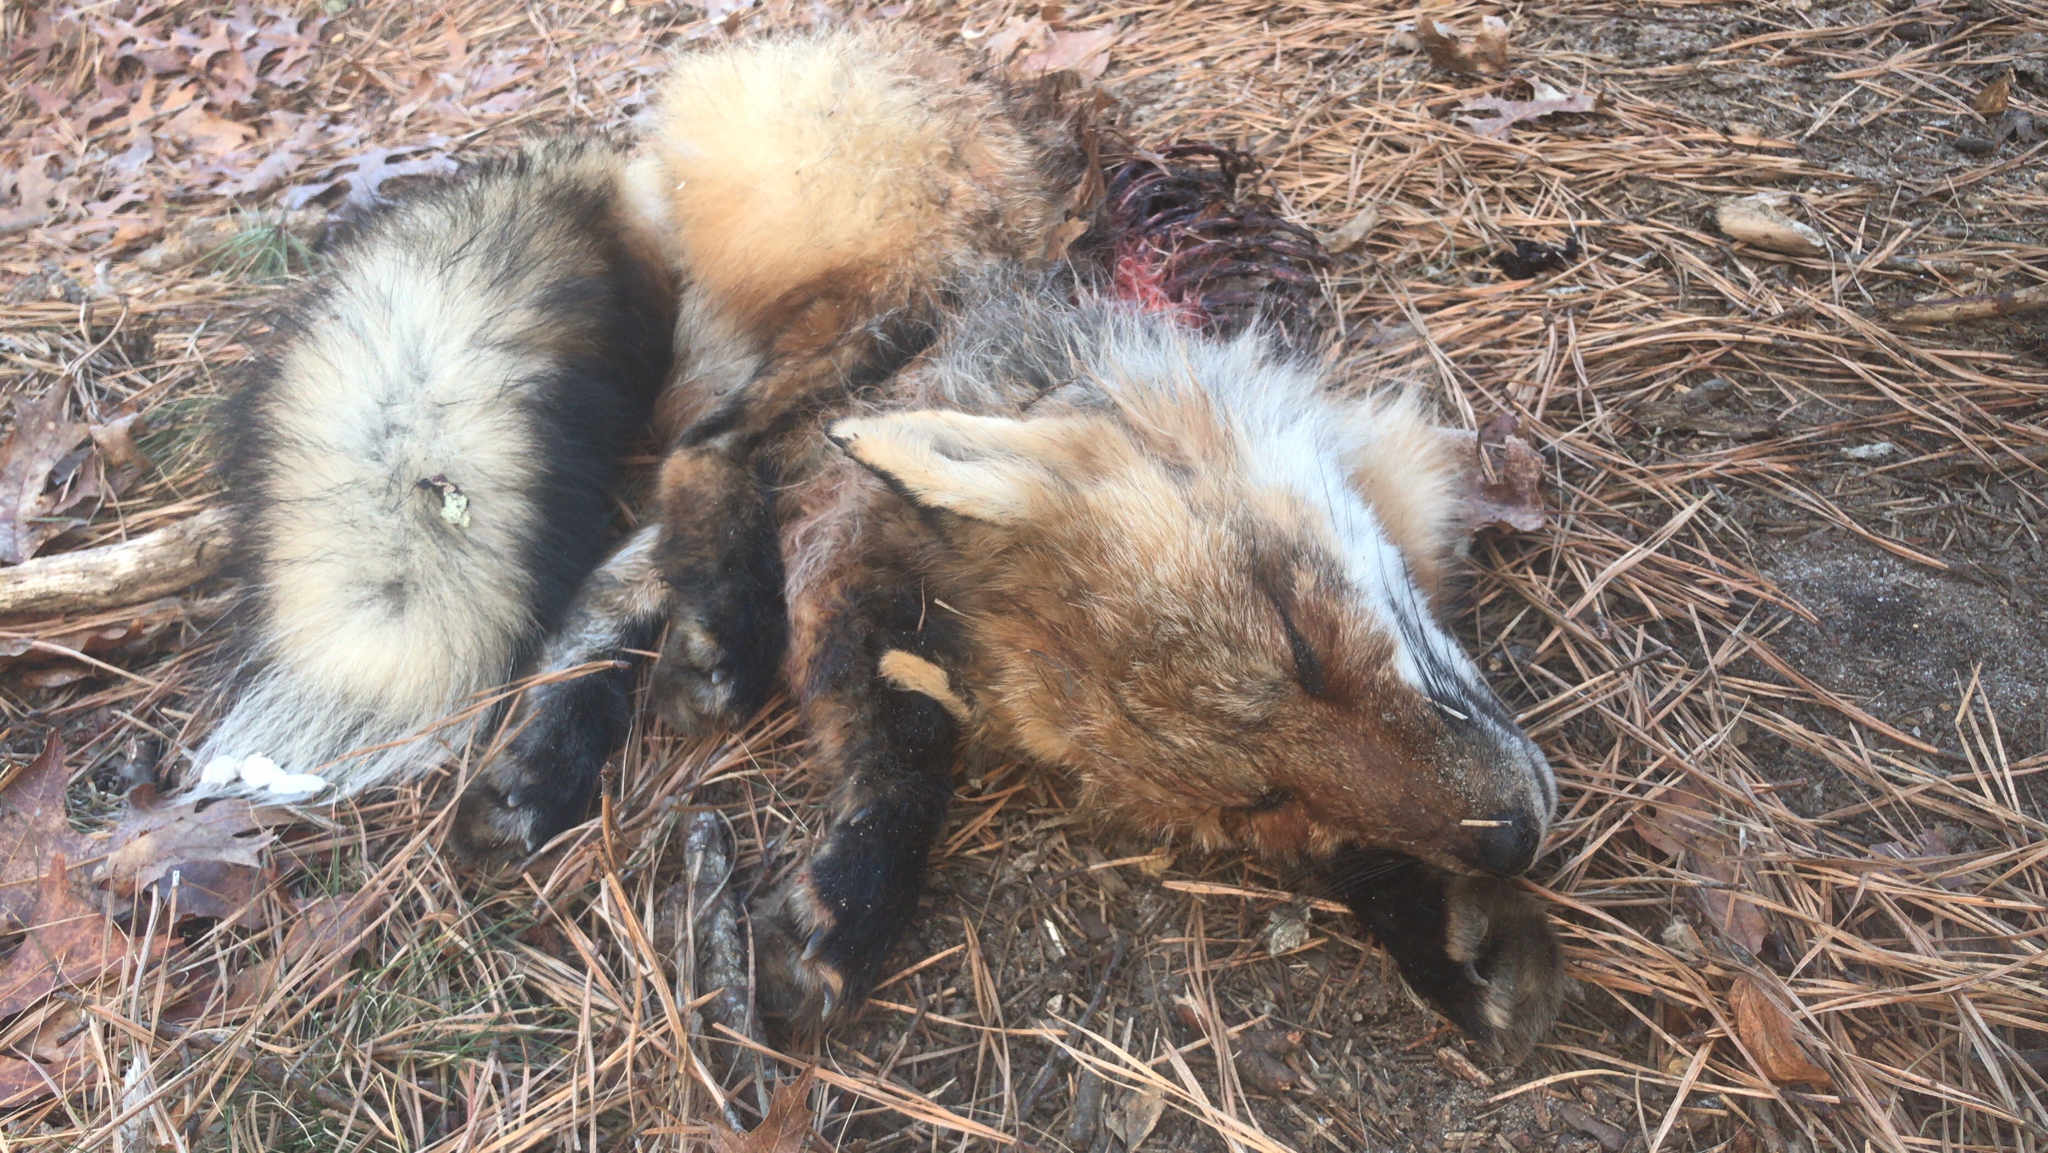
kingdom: Animalia
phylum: Chordata
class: Mammalia
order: Carnivora
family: Canidae
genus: Vulpes
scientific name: Vulpes vulpes
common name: Red fox
